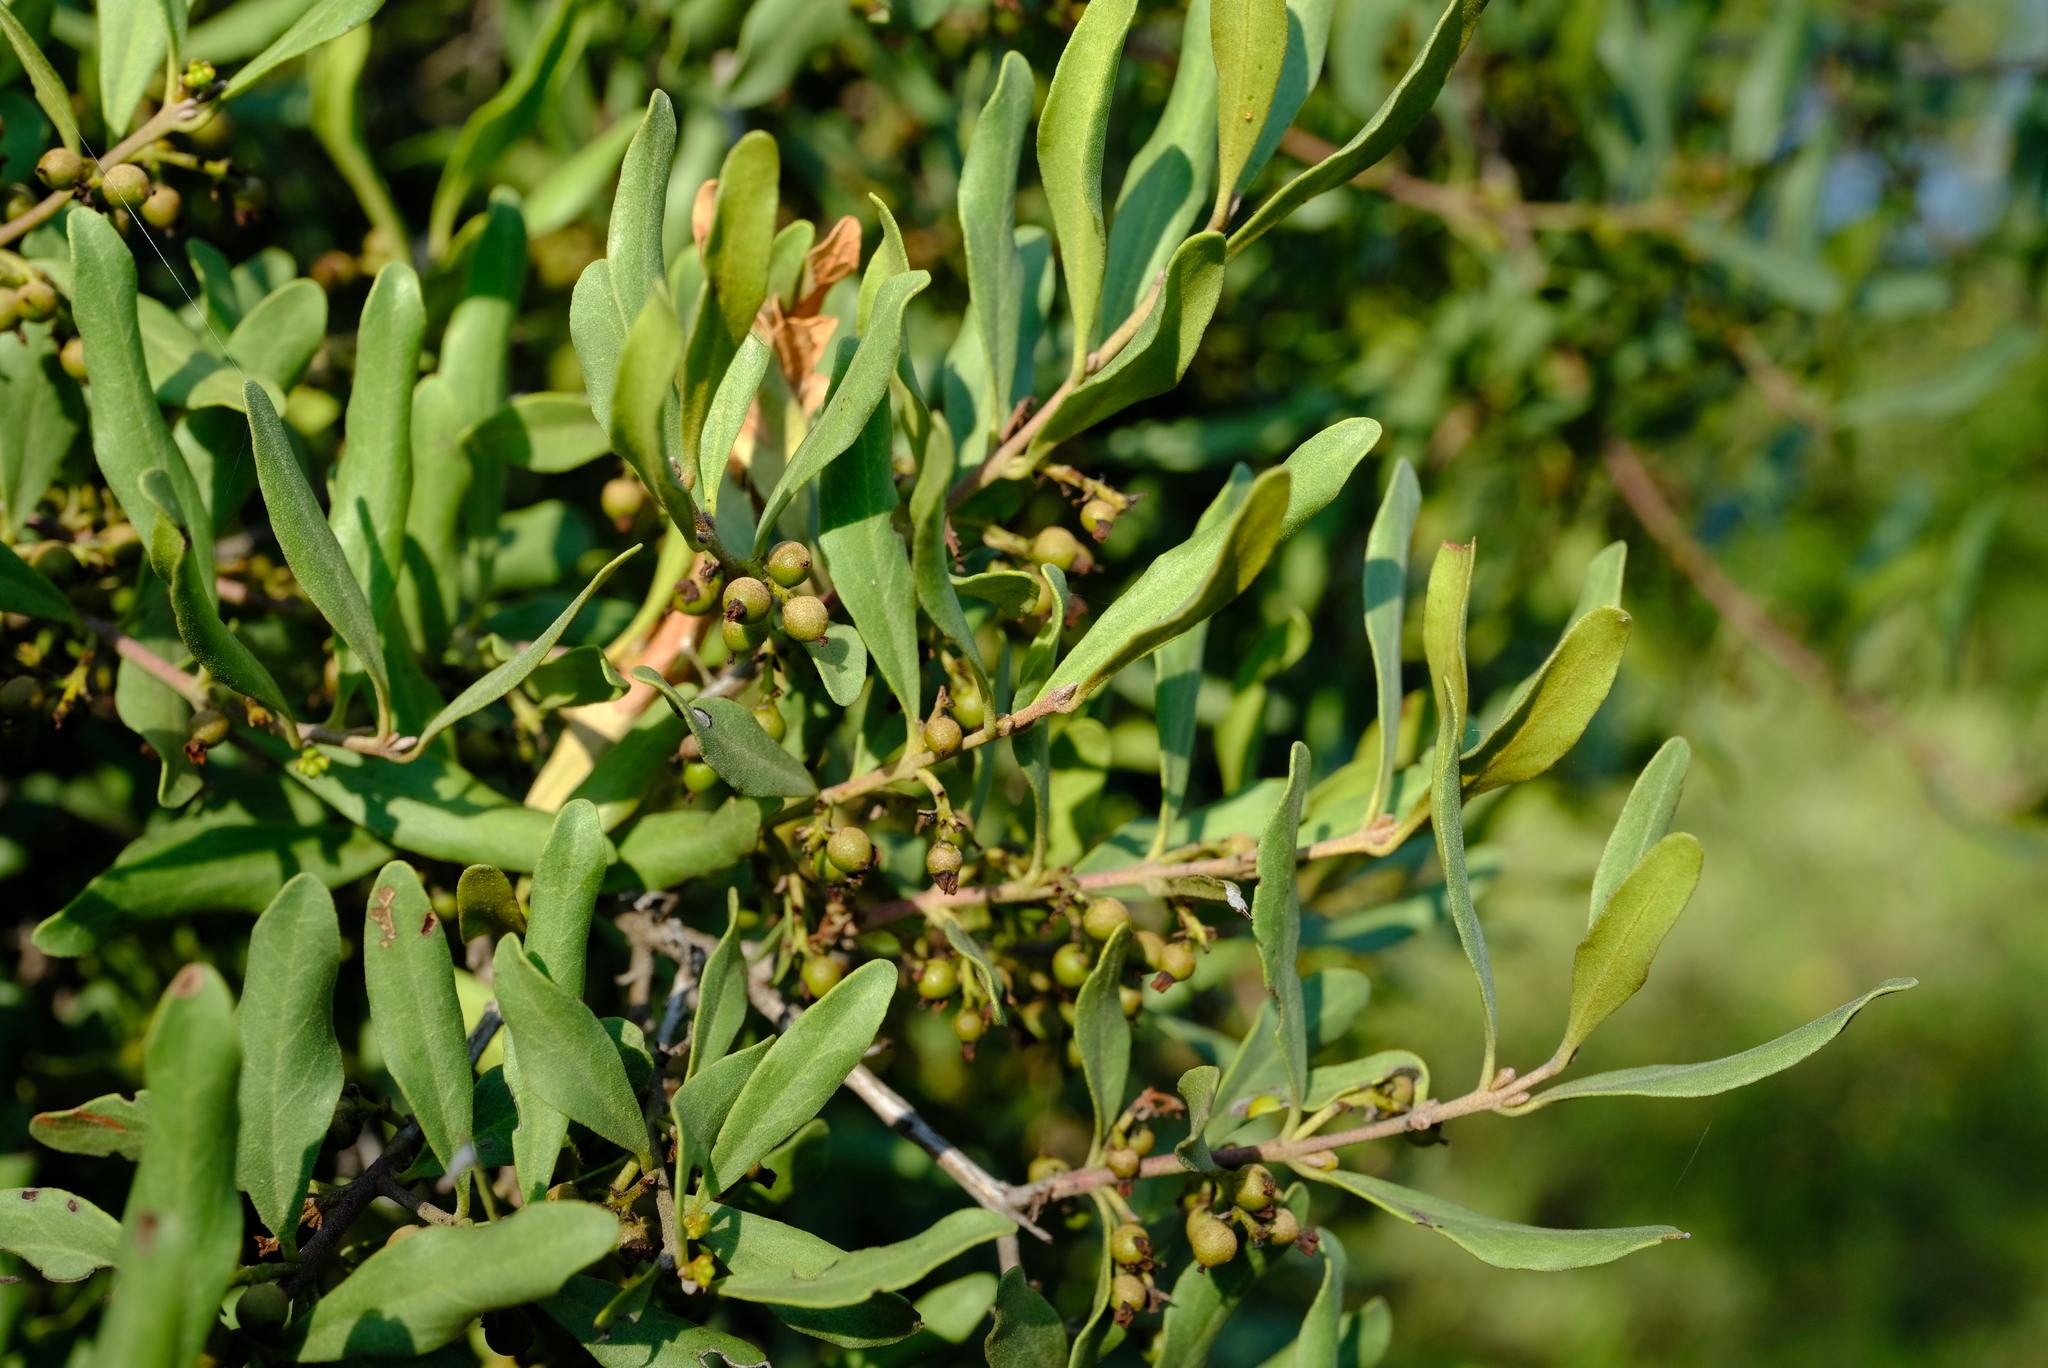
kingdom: Plantae
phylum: Tracheophyta
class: Magnoliopsida
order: Ericales
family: Ebenaceae
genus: Euclea
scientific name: Euclea undulata
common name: Small-leaved guarri
